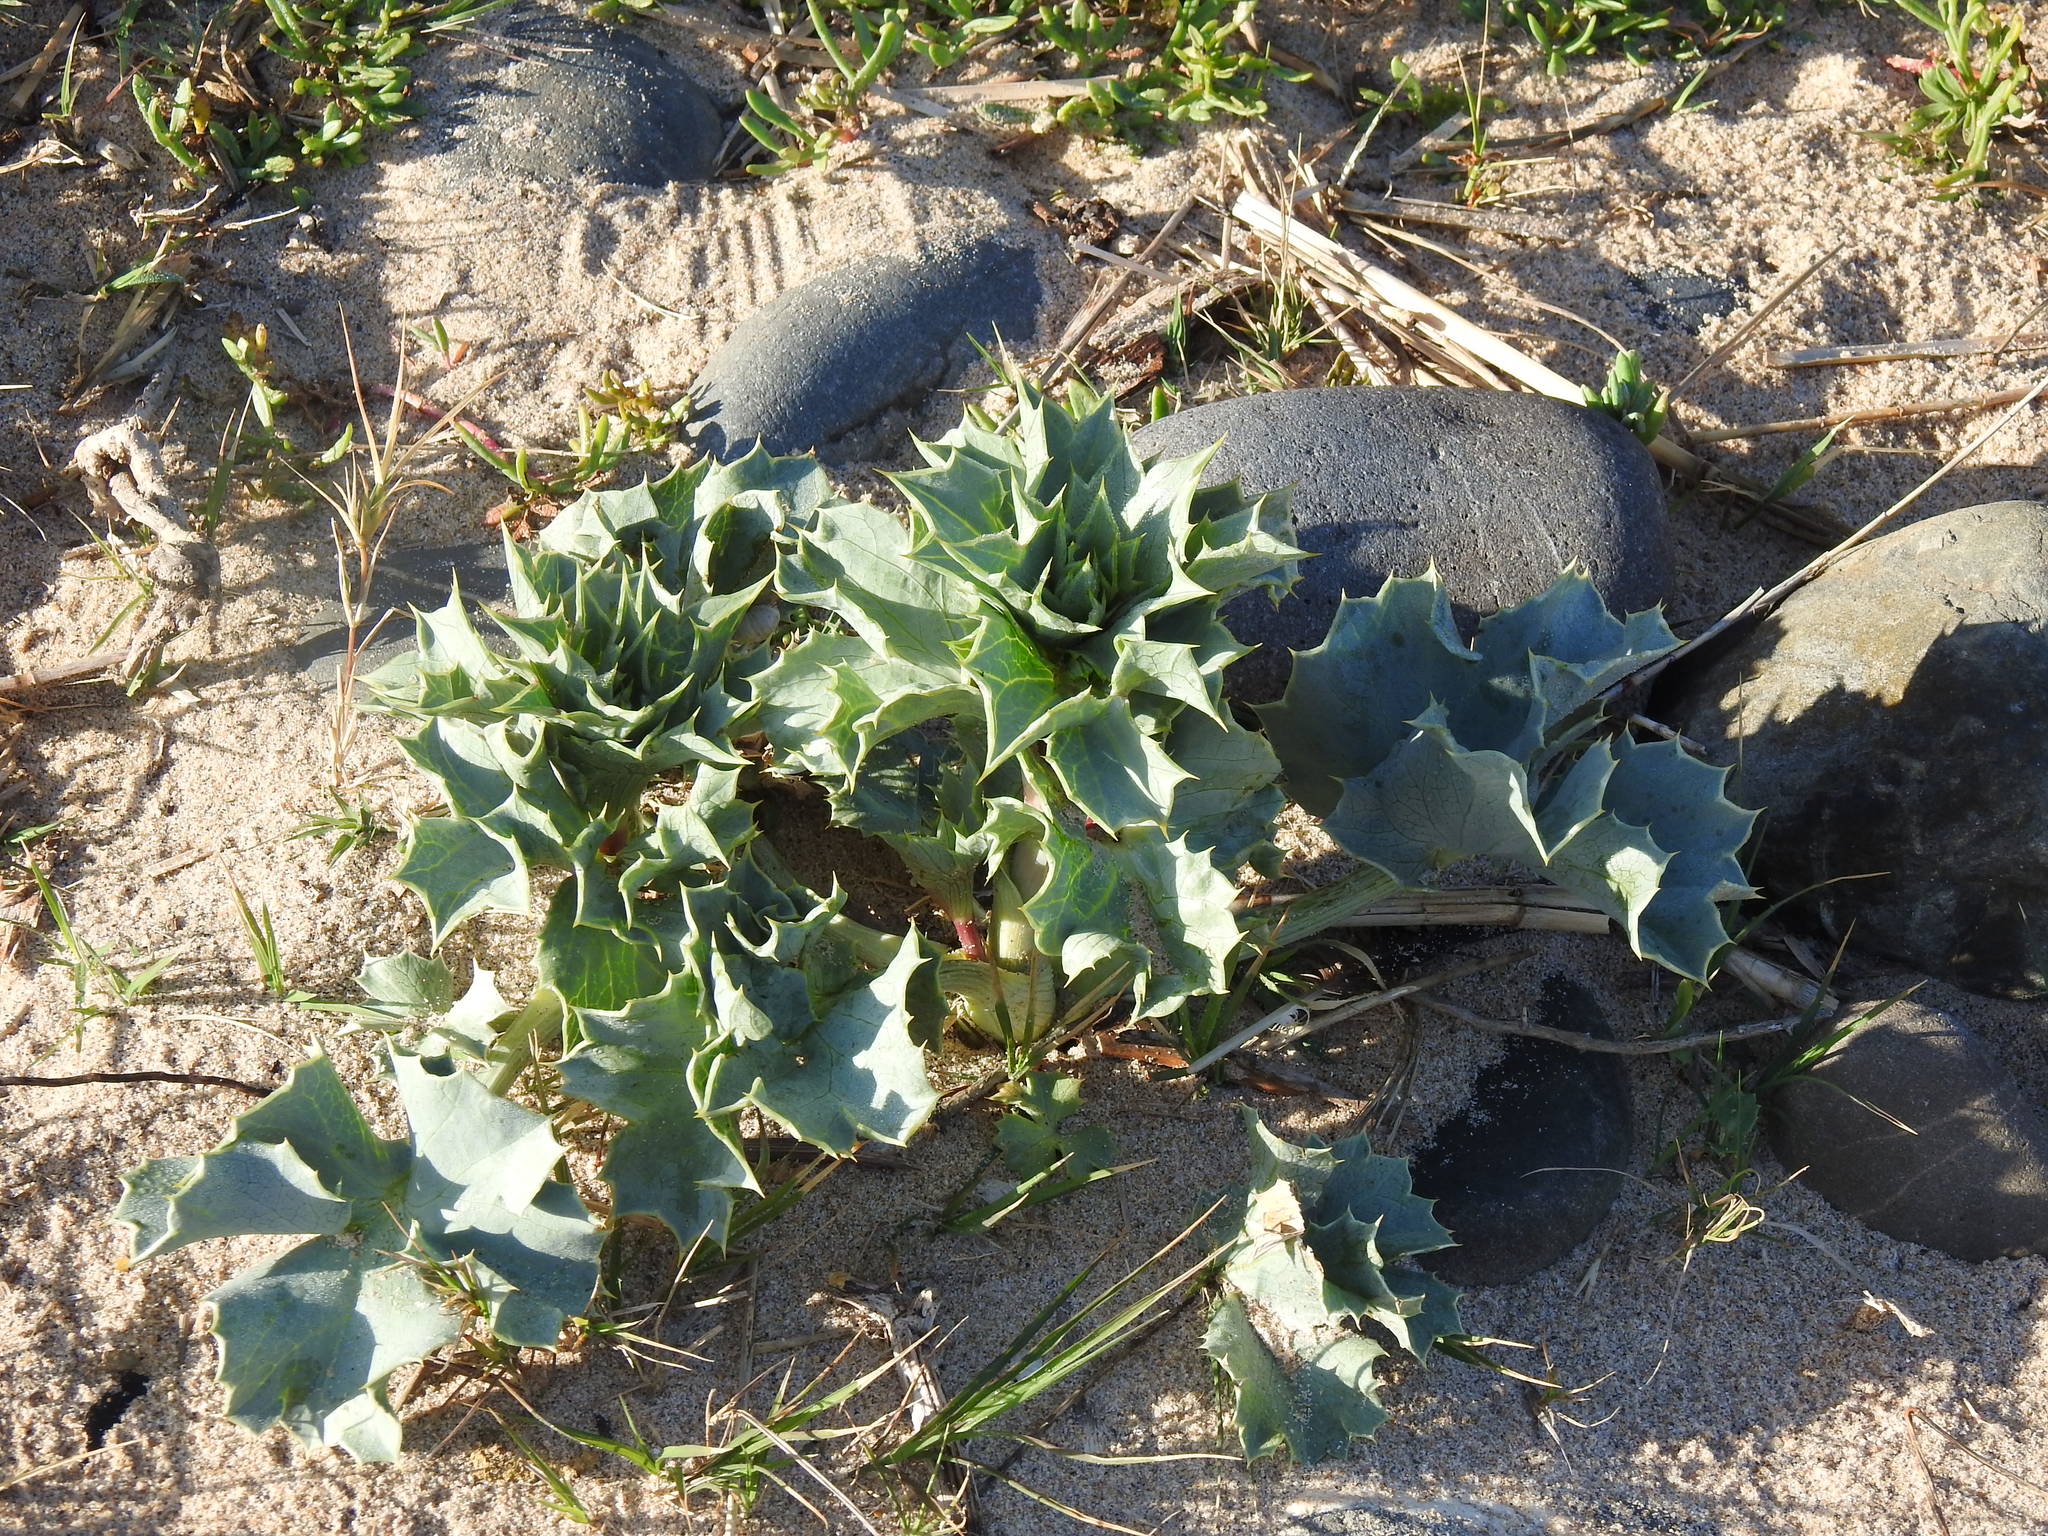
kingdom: Plantae
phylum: Tracheophyta
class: Magnoliopsida
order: Apiales
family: Apiaceae
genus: Eryngium
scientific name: Eryngium maritimum
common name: Sea-holly
